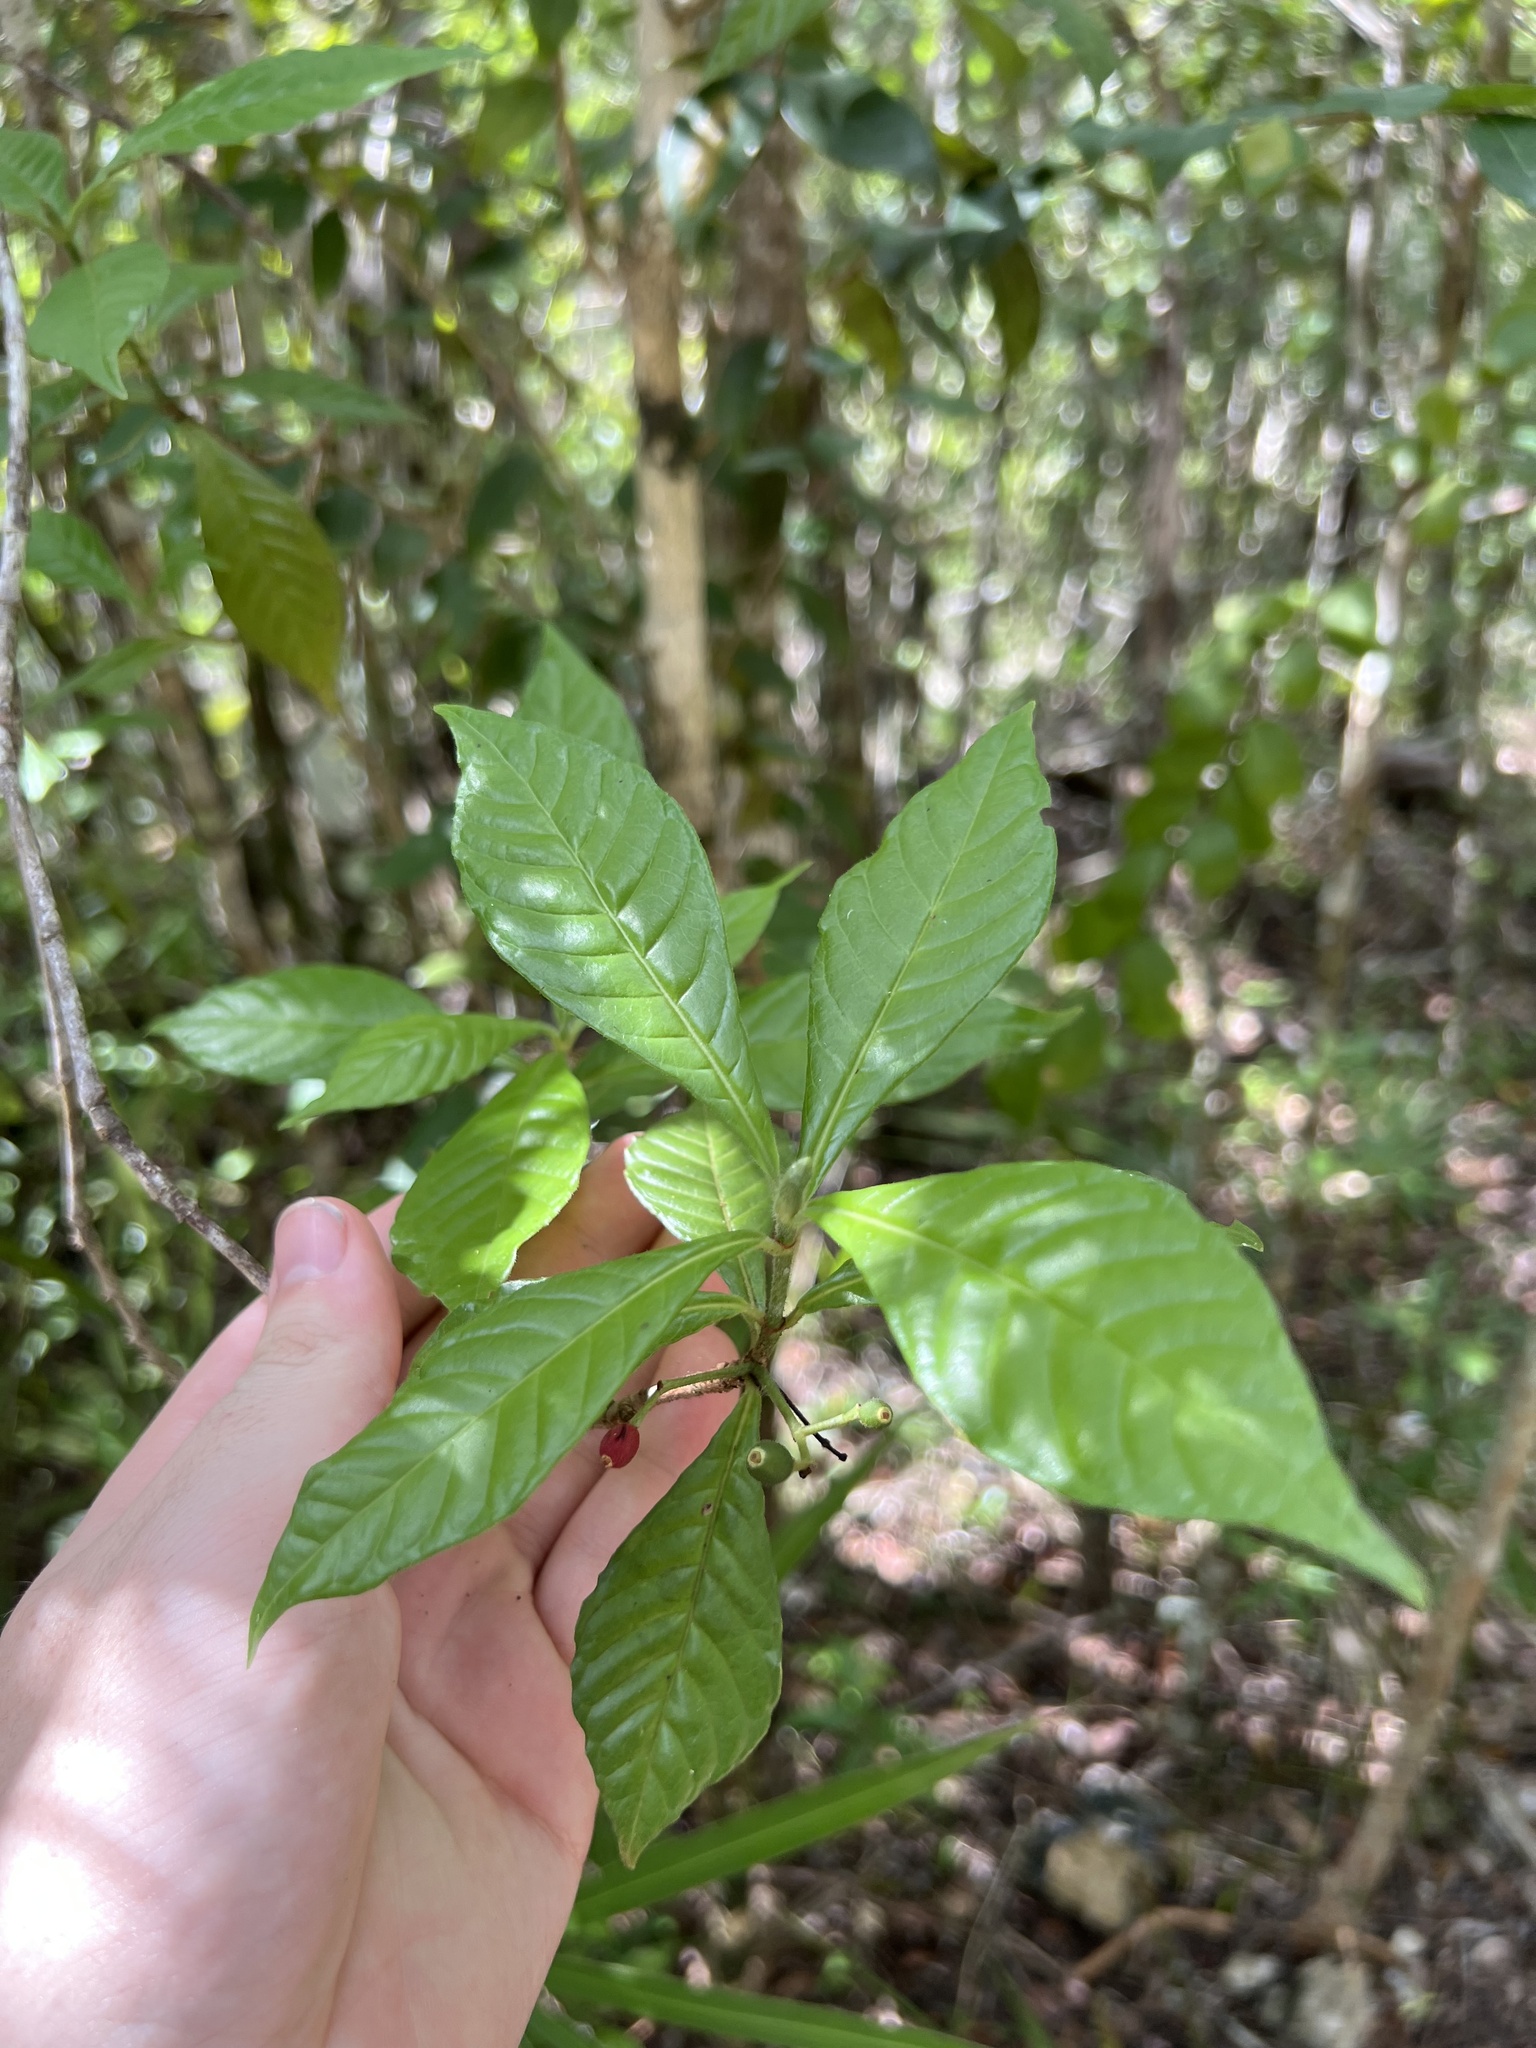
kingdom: Plantae
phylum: Tracheophyta
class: Magnoliopsida
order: Gentianales
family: Rubiaceae
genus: Psychotria
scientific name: Psychotria nervosa
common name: Bastard cankerberry
